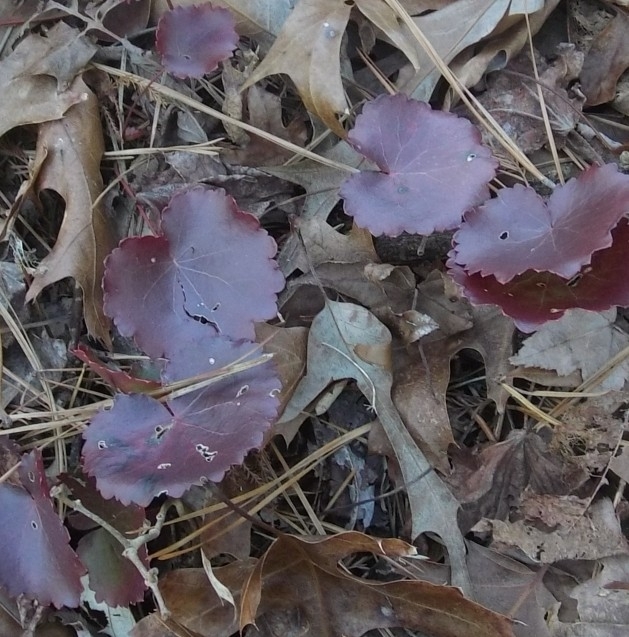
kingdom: Plantae
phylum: Tracheophyta
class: Magnoliopsida
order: Ericales
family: Diapensiaceae
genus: Galax
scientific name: Galax urceolata
